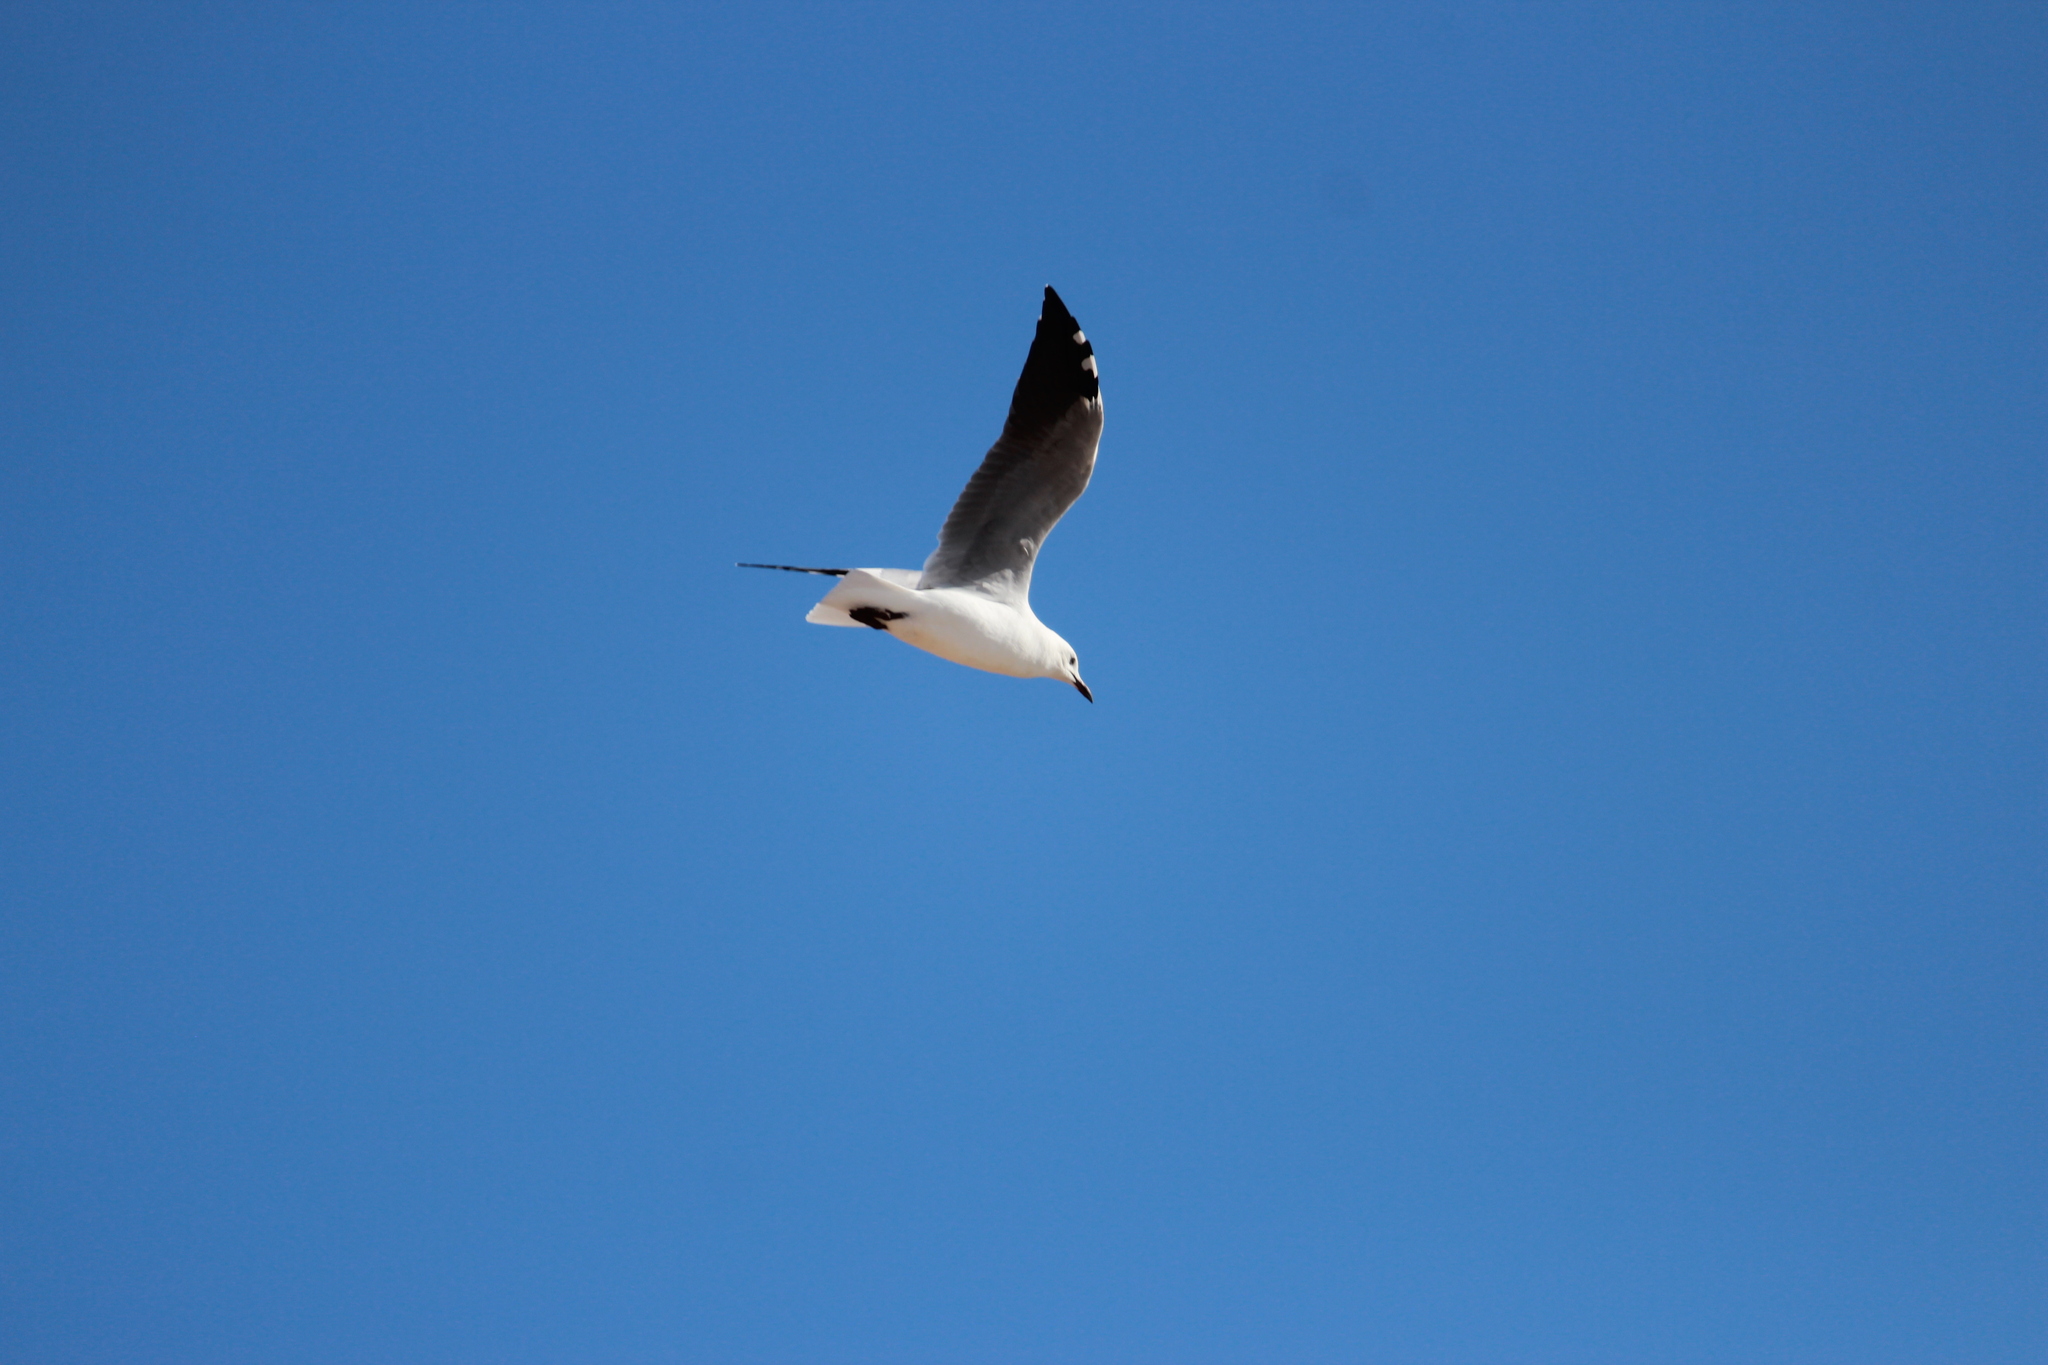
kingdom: Animalia
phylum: Chordata
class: Aves
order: Charadriiformes
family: Laridae
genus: Chroicocephalus
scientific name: Chroicocephalus hartlaubii
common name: Hartlaub's gull
